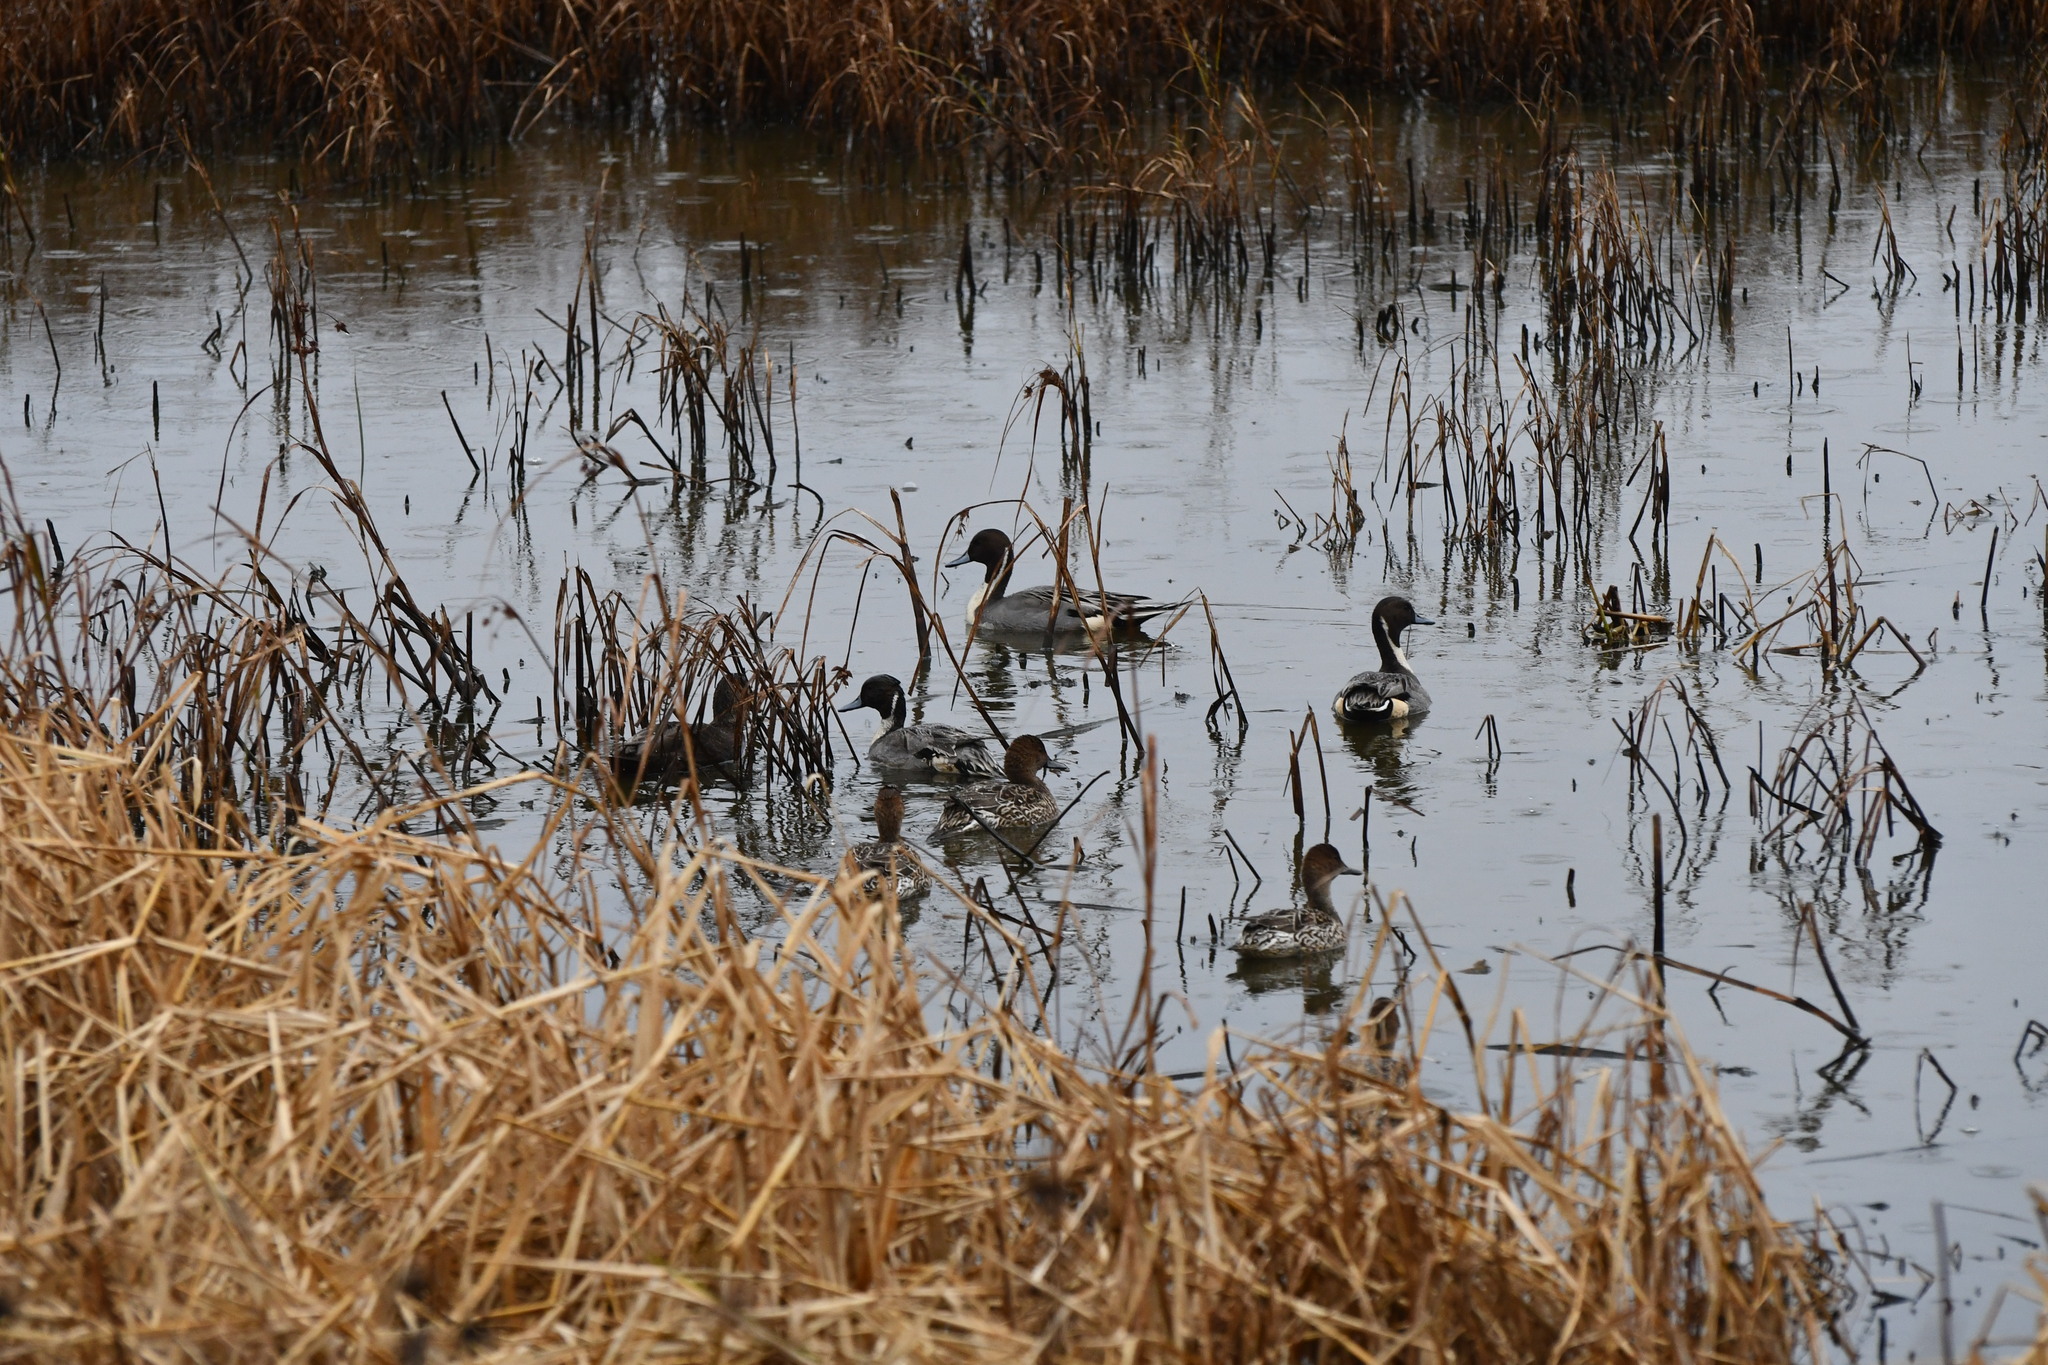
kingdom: Animalia
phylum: Chordata
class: Aves
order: Anseriformes
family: Anatidae
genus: Anas
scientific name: Anas acuta
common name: Northern pintail
